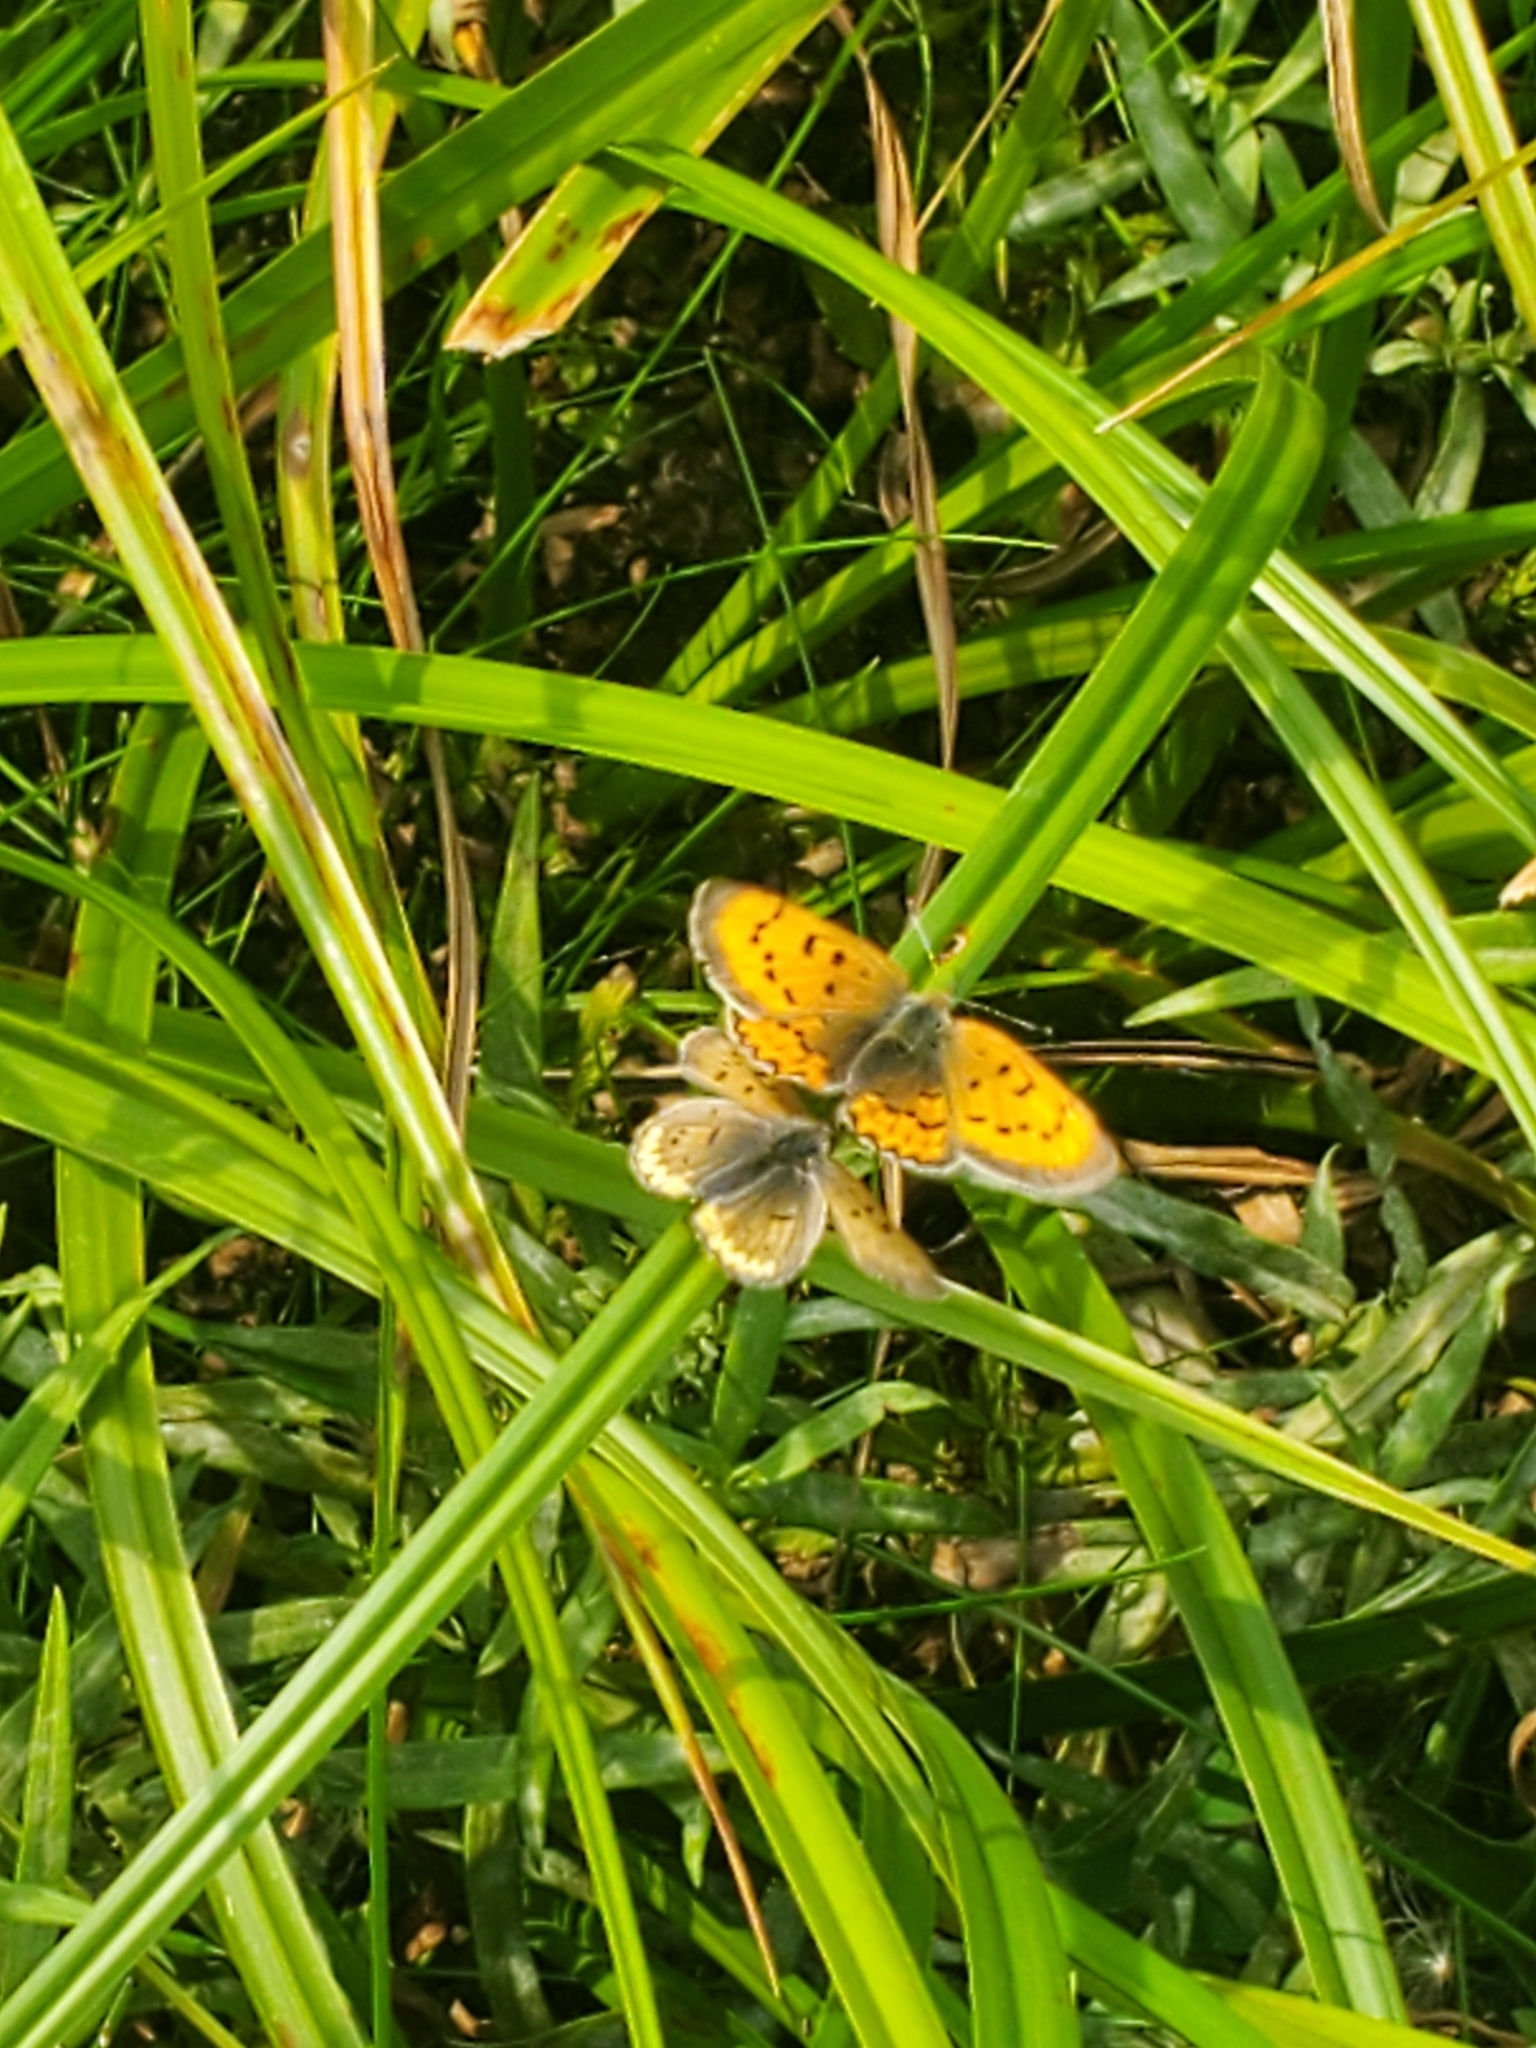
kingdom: Animalia
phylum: Arthropoda
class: Insecta
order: Lepidoptera
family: Lycaenidae
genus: Tharsalea
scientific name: Tharsalea helloides
